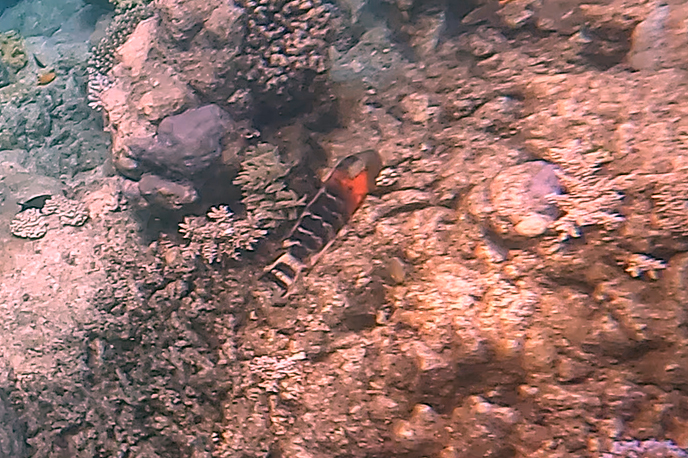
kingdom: Animalia
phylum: Chordata
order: Perciformes
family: Labridae
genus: Cheilinus
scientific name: Cheilinus fasciatus
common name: Red-breasted wrasse
